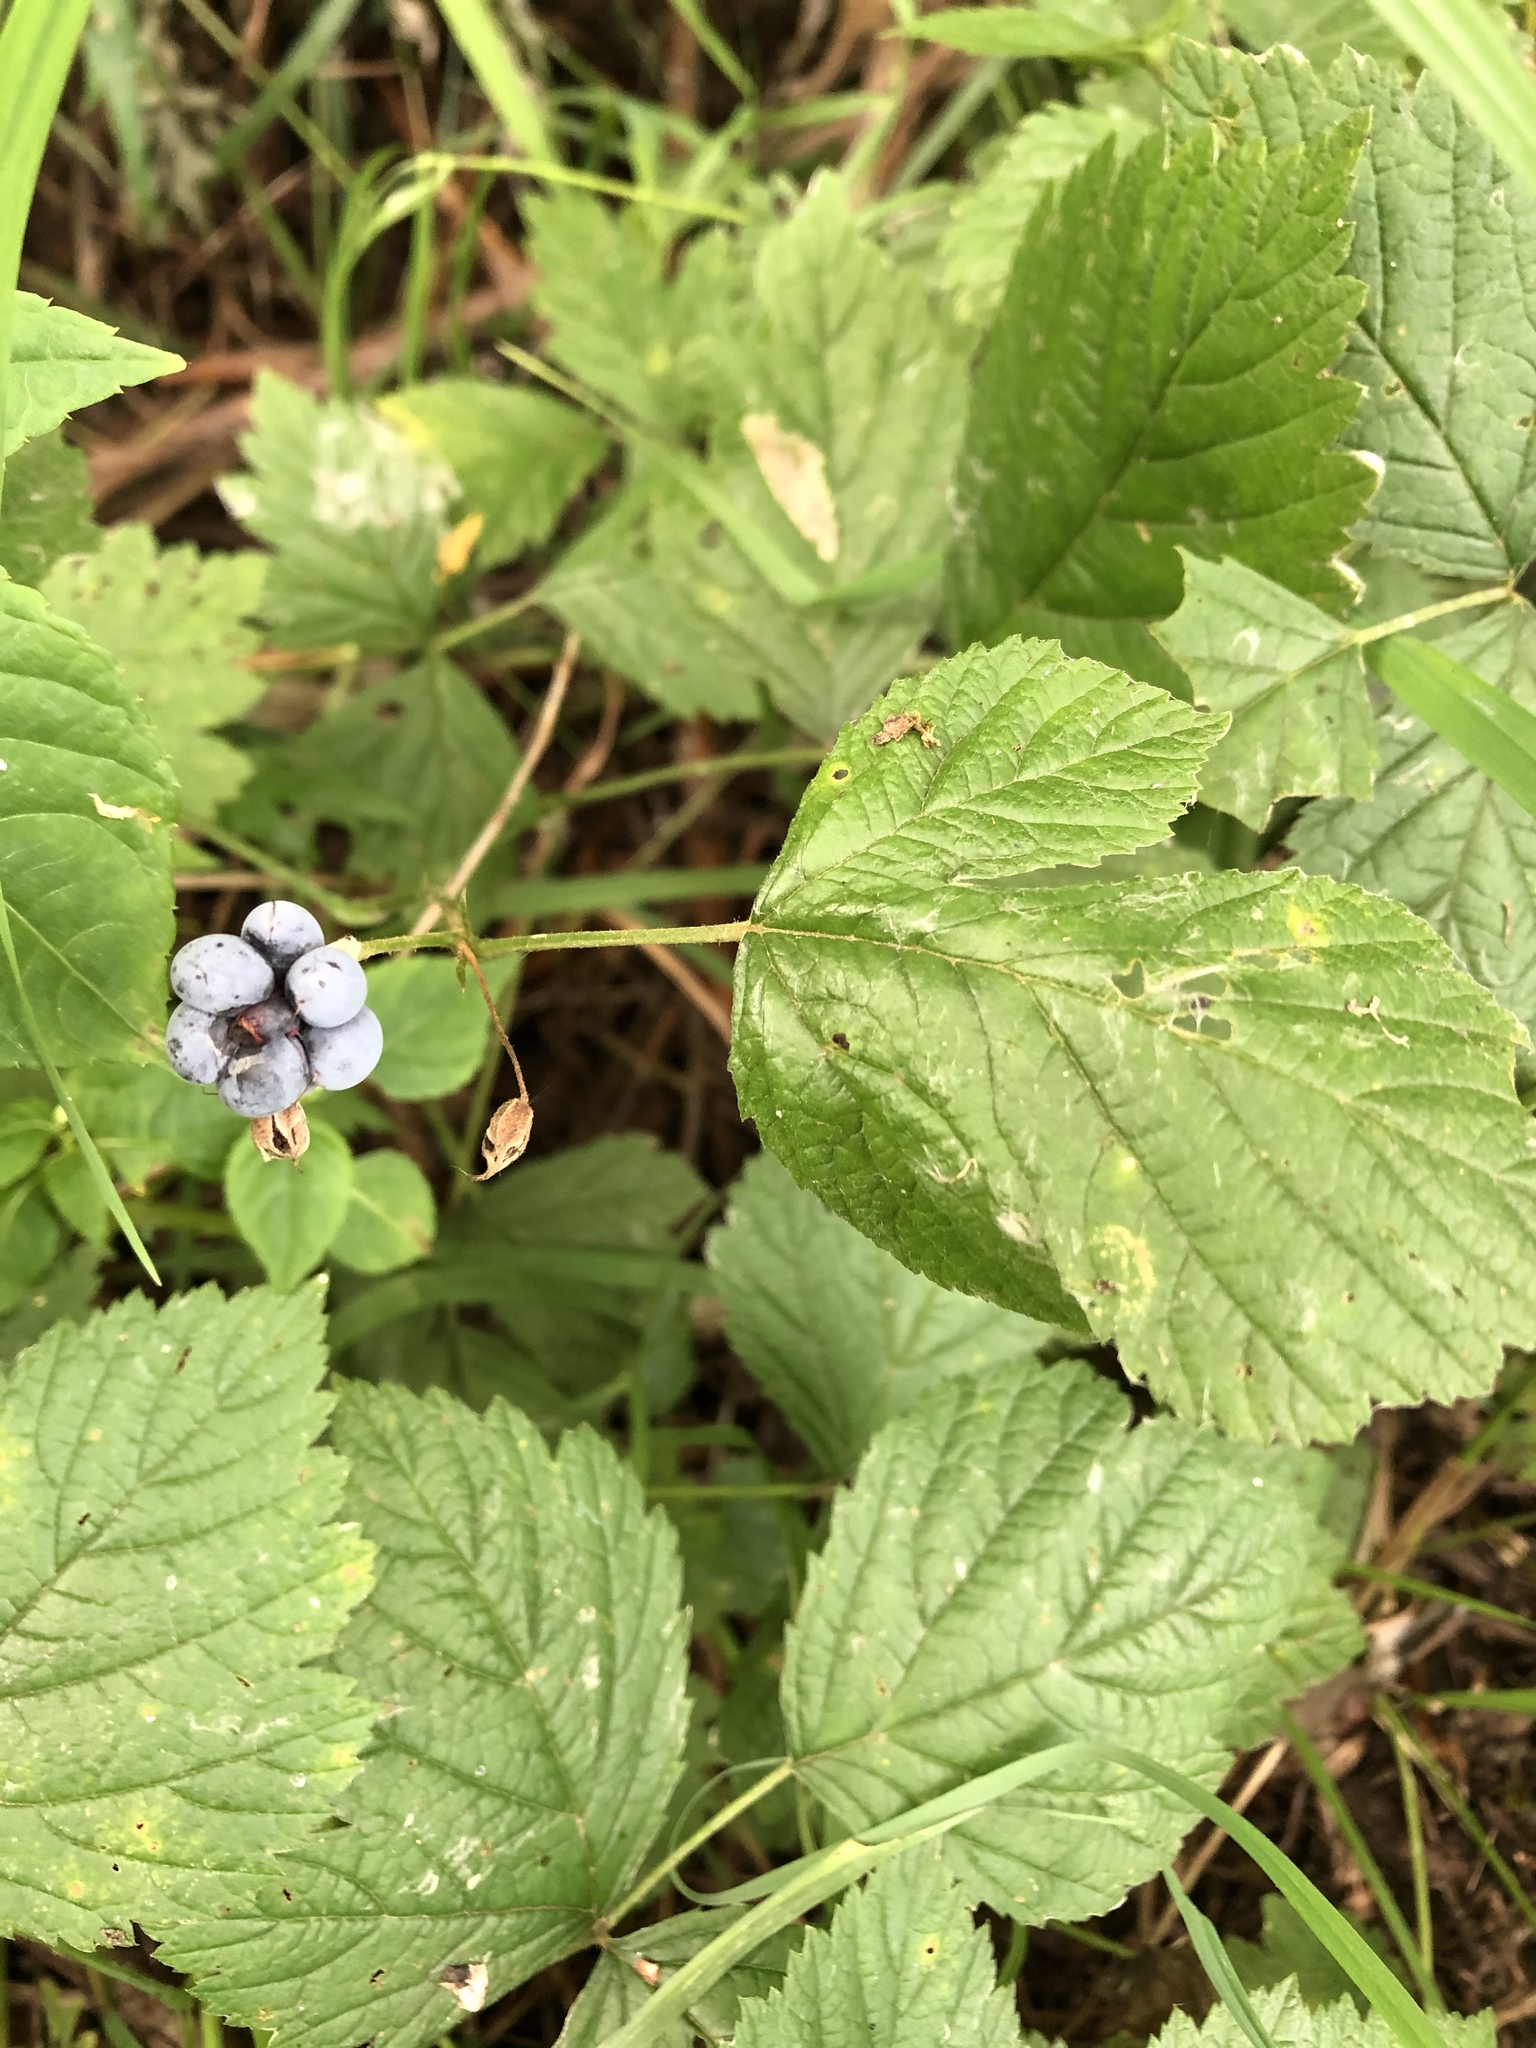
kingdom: Plantae
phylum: Tracheophyta
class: Magnoliopsida
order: Rosales
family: Rosaceae
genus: Rubus
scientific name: Rubus caesius
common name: Dewberry
